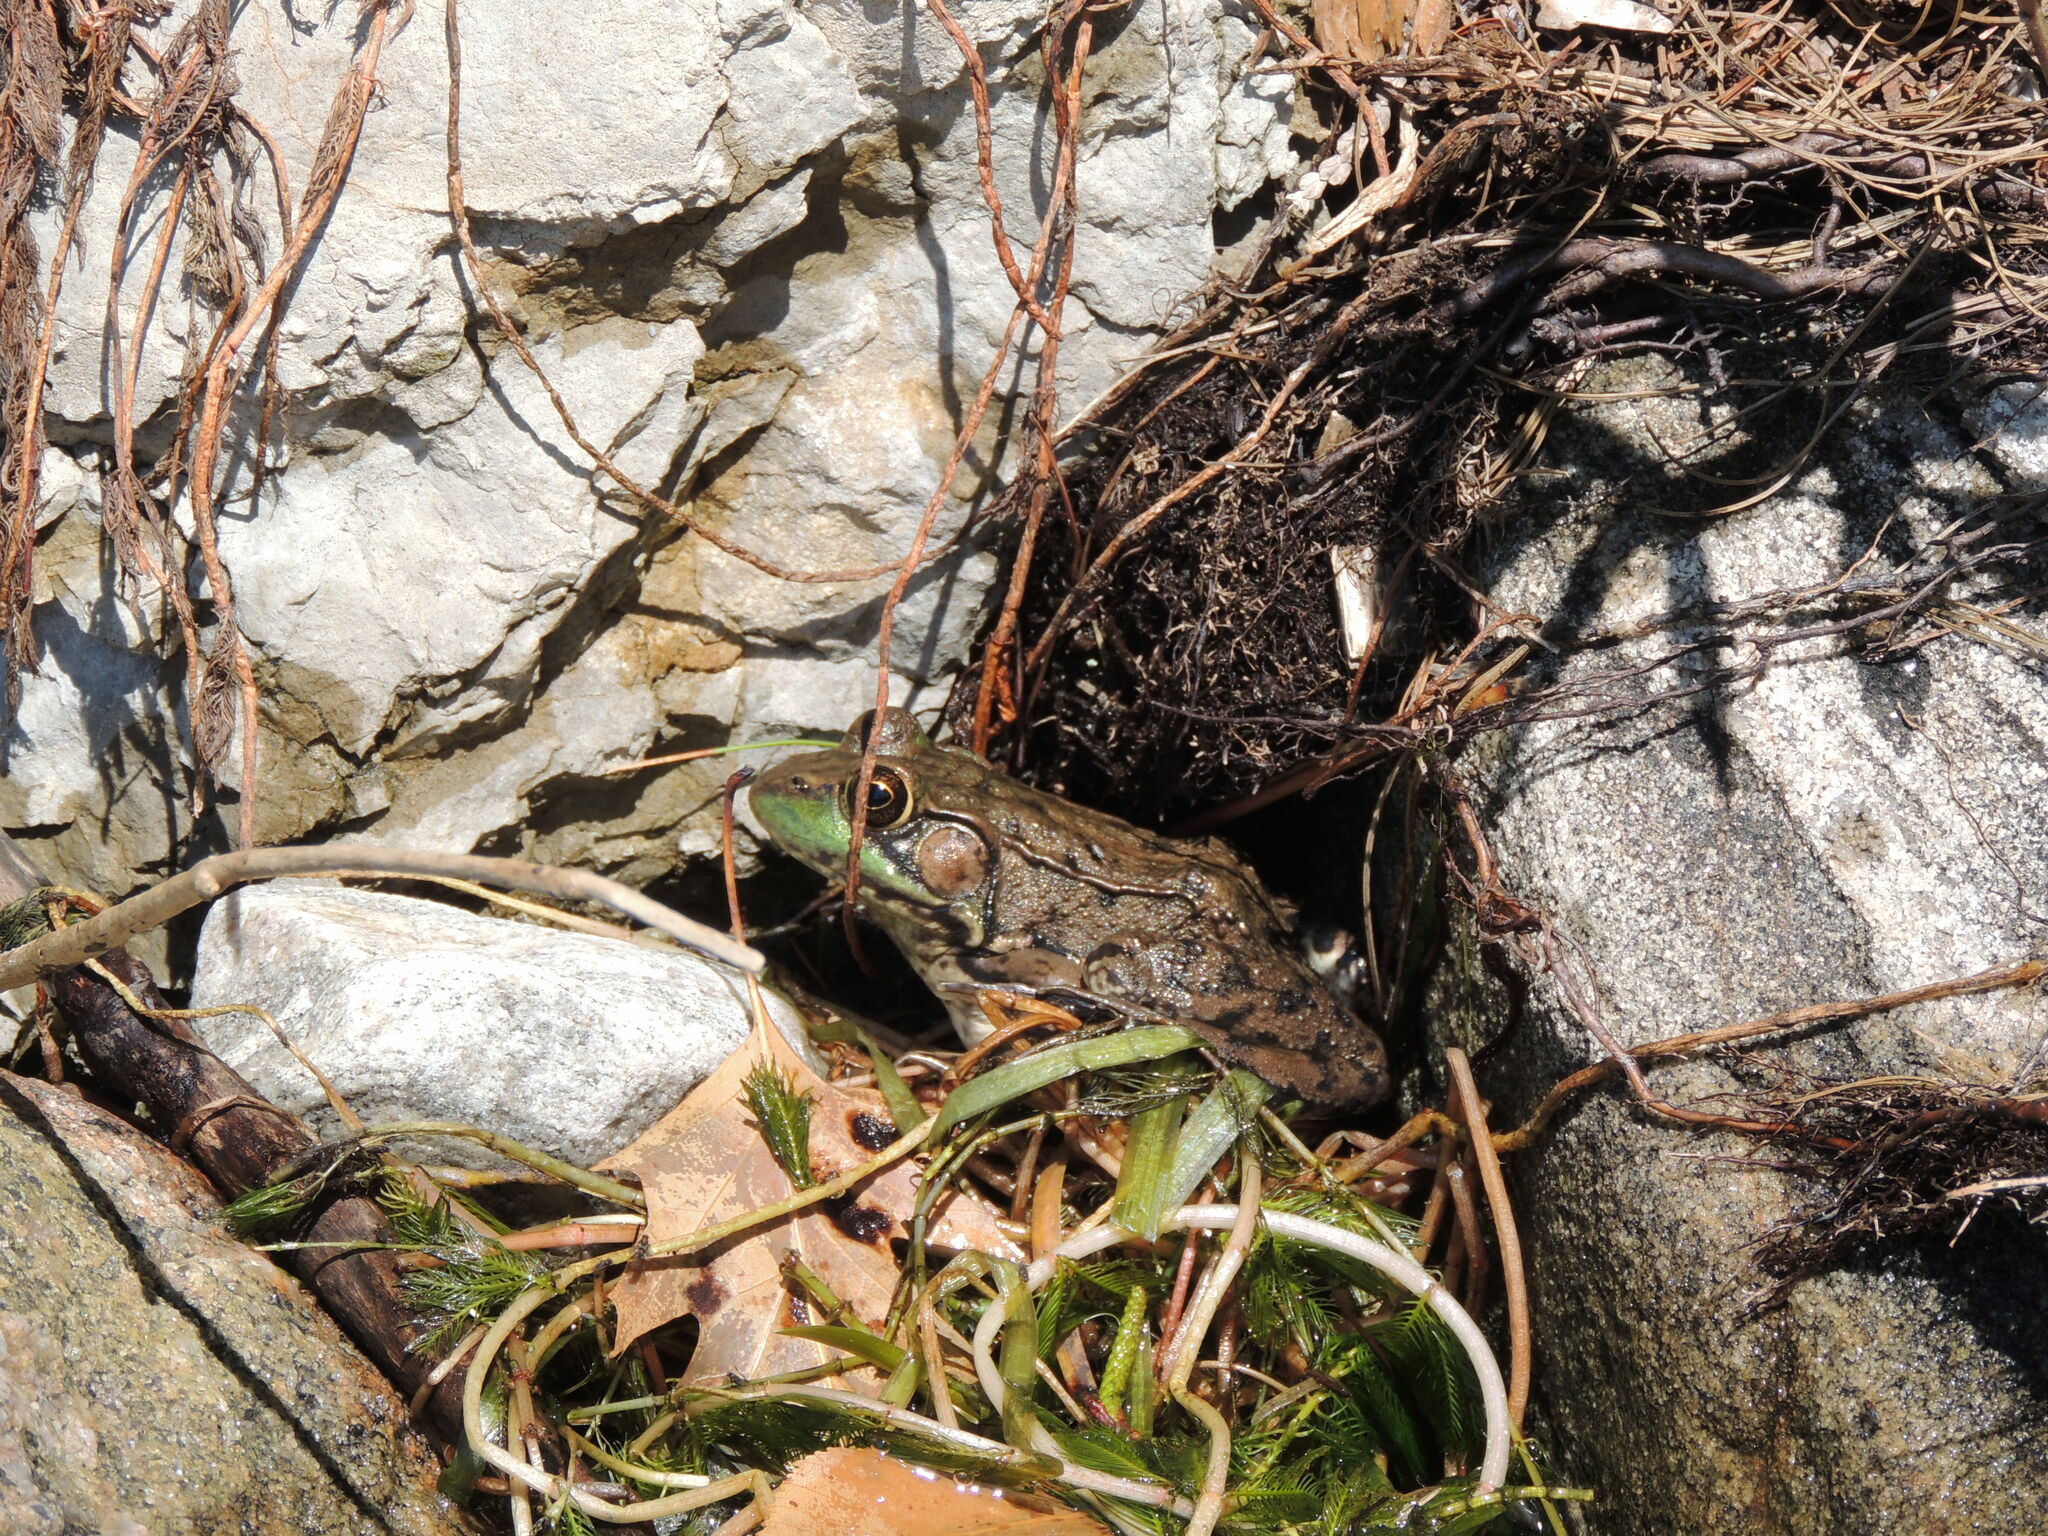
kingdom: Animalia
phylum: Chordata
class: Amphibia
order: Anura
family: Ranidae
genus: Lithobates
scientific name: Lithobates clamitans
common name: Green frog
